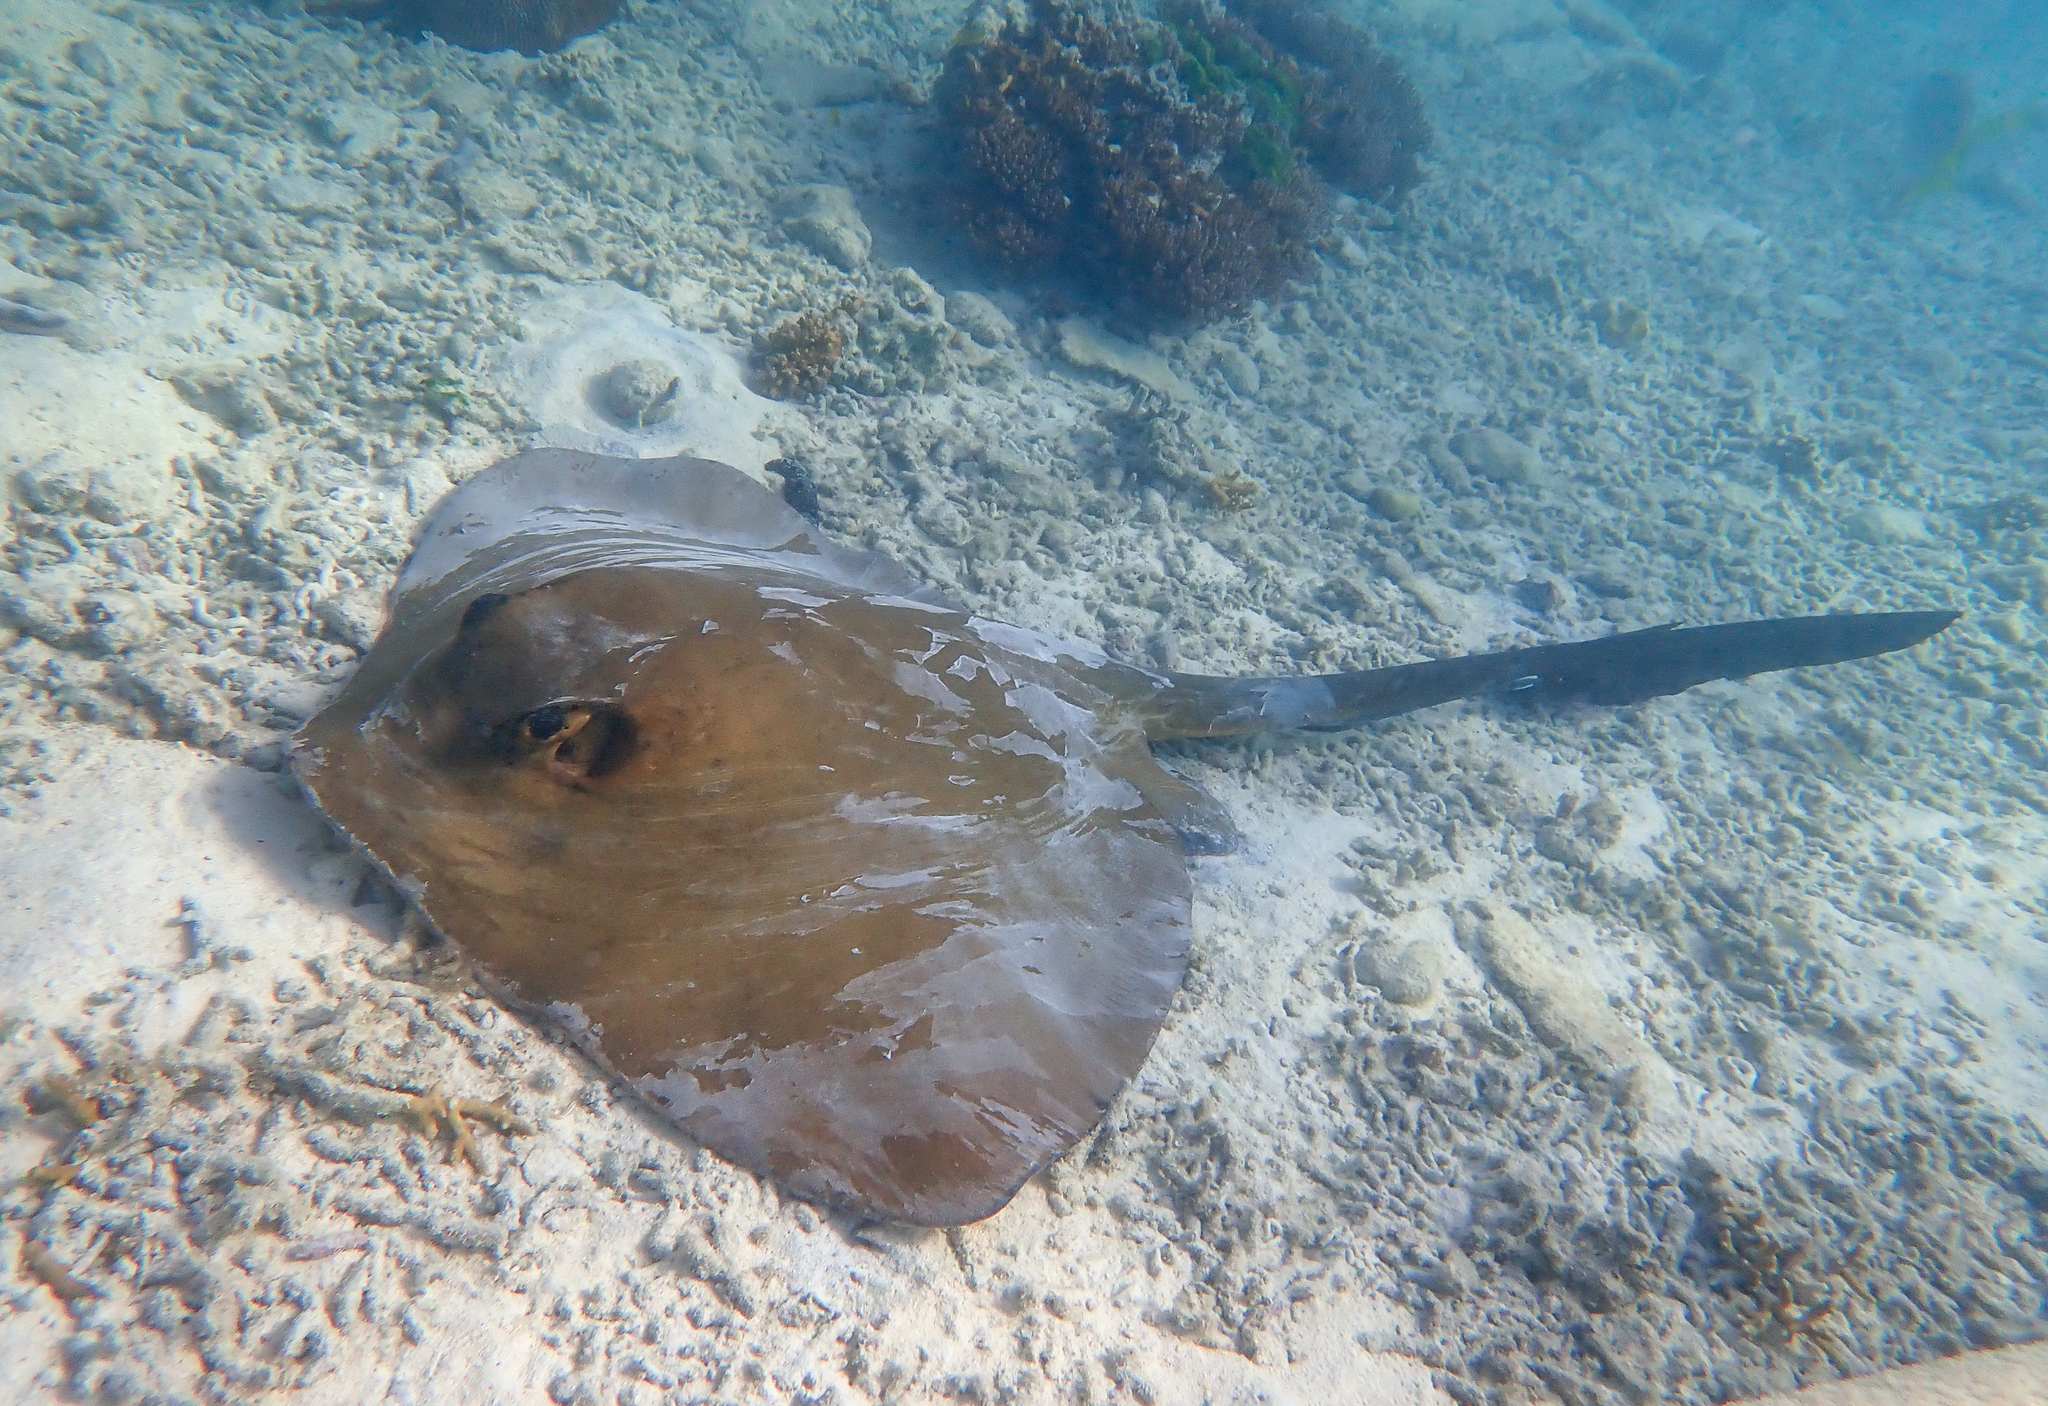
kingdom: Animalia
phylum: Chordata
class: Elasmobranchii
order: Myliobatiformes
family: Dasyatidae
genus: Pastinachus
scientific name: Pastinachus ater
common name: Banana-tail ray
